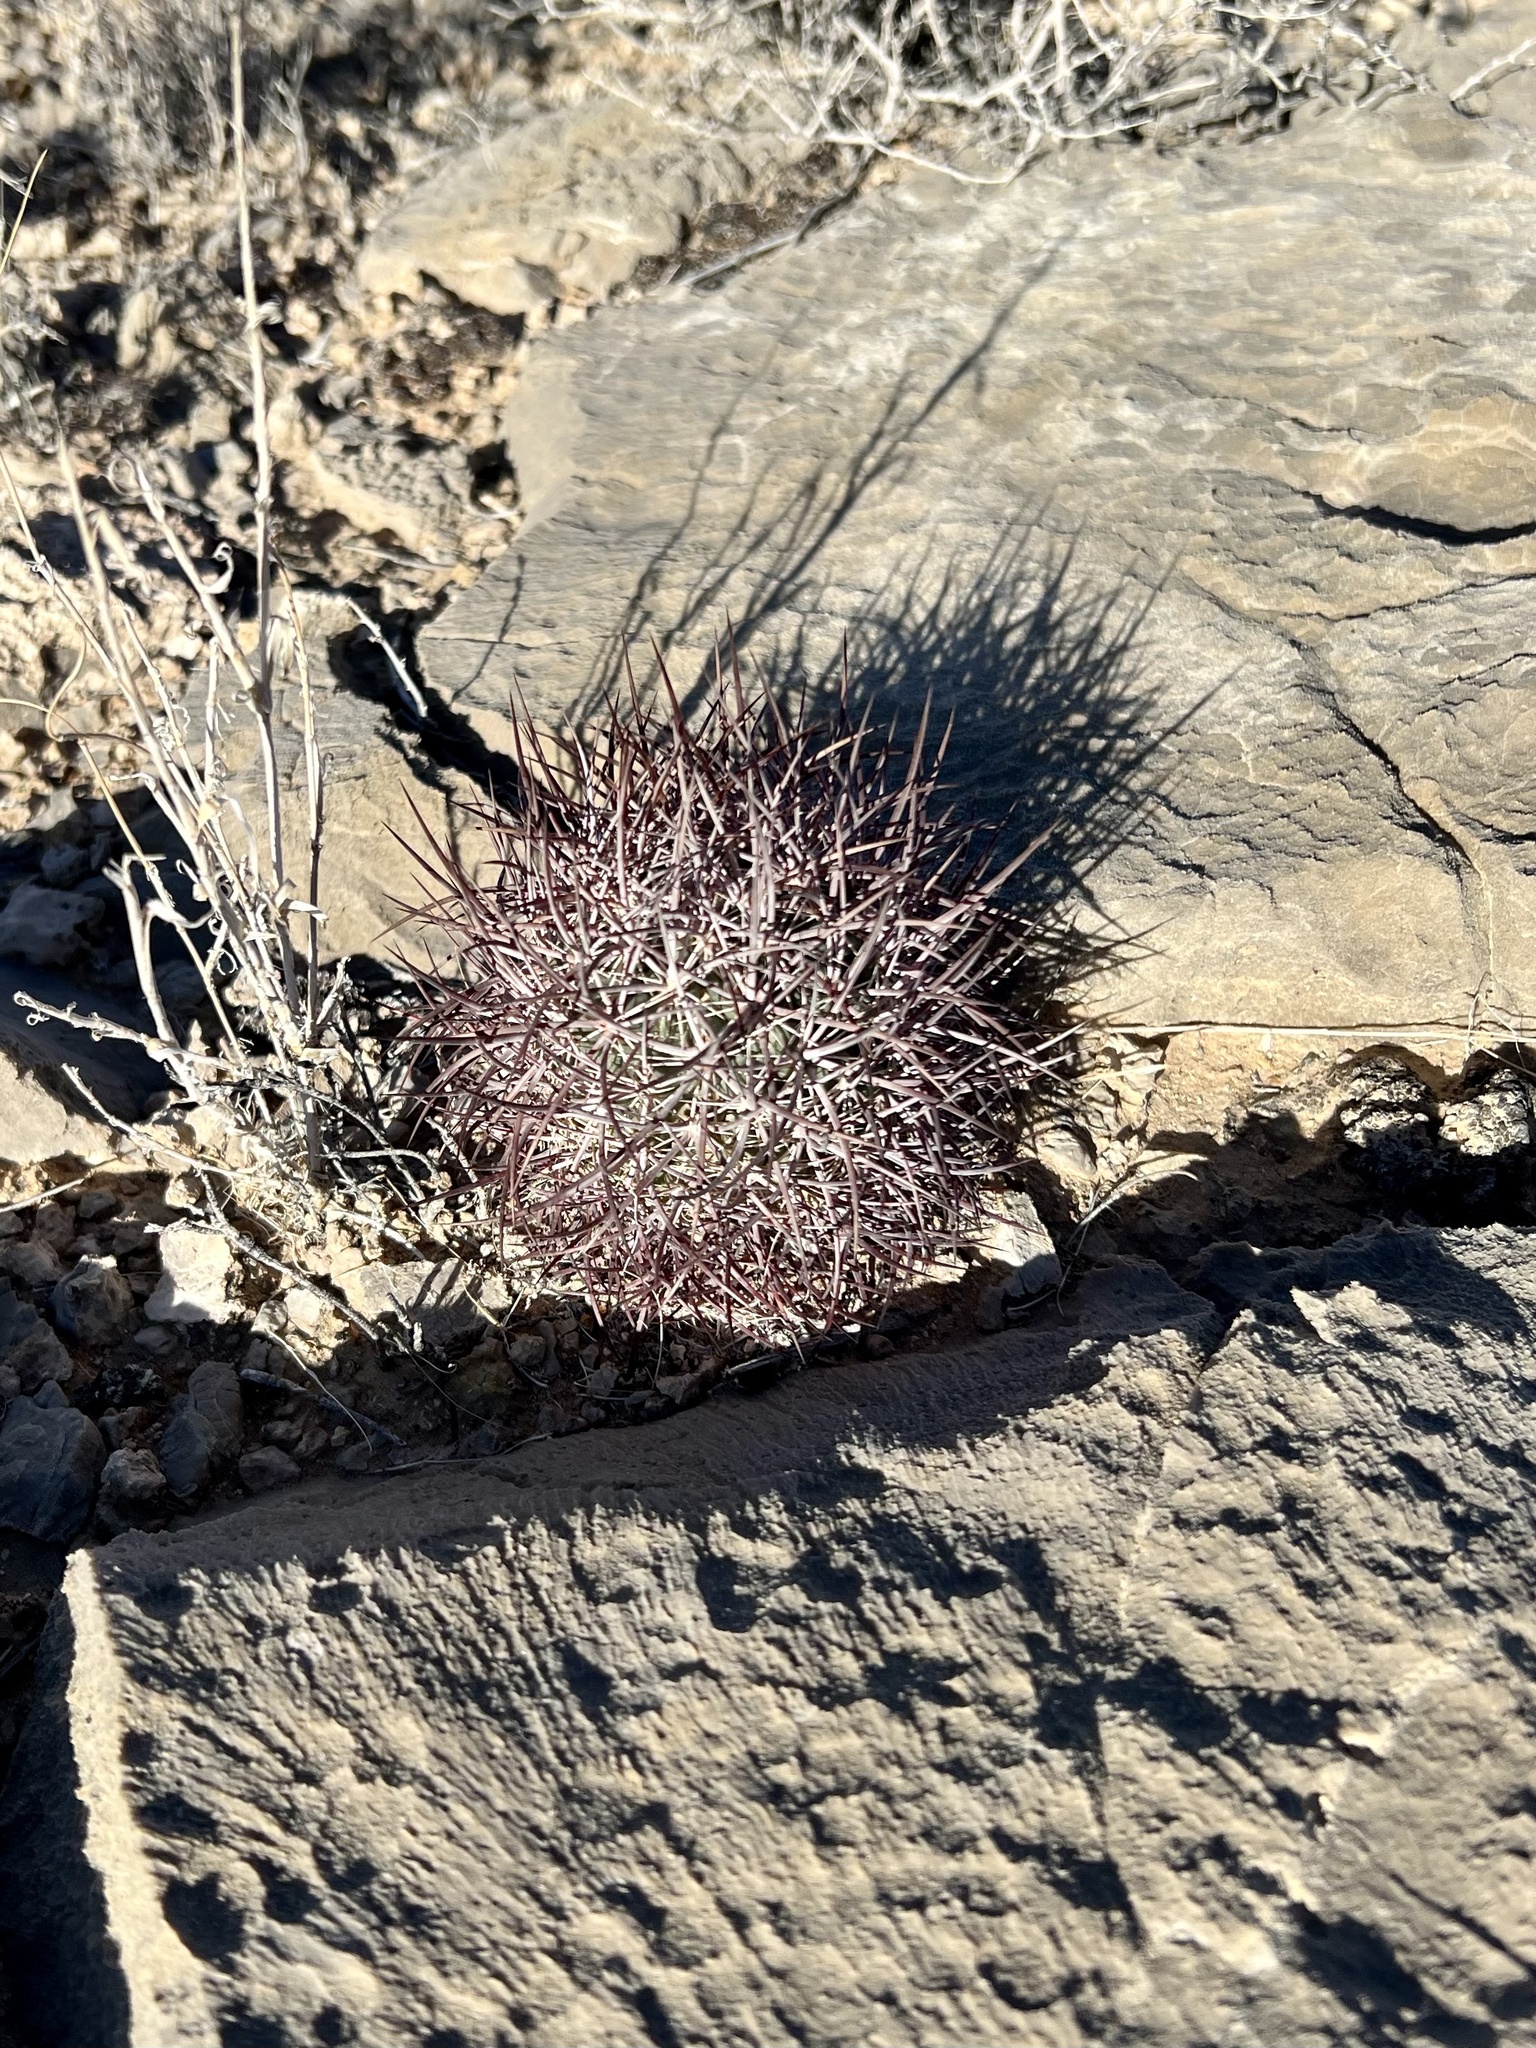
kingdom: Plantae
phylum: Tracheophyta
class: Magnoliopsida
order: Caryophyllales
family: Cactaceae
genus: Sclerocactus
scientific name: Sclerocactus johnsonii
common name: Eight-spine fishhook cactus
